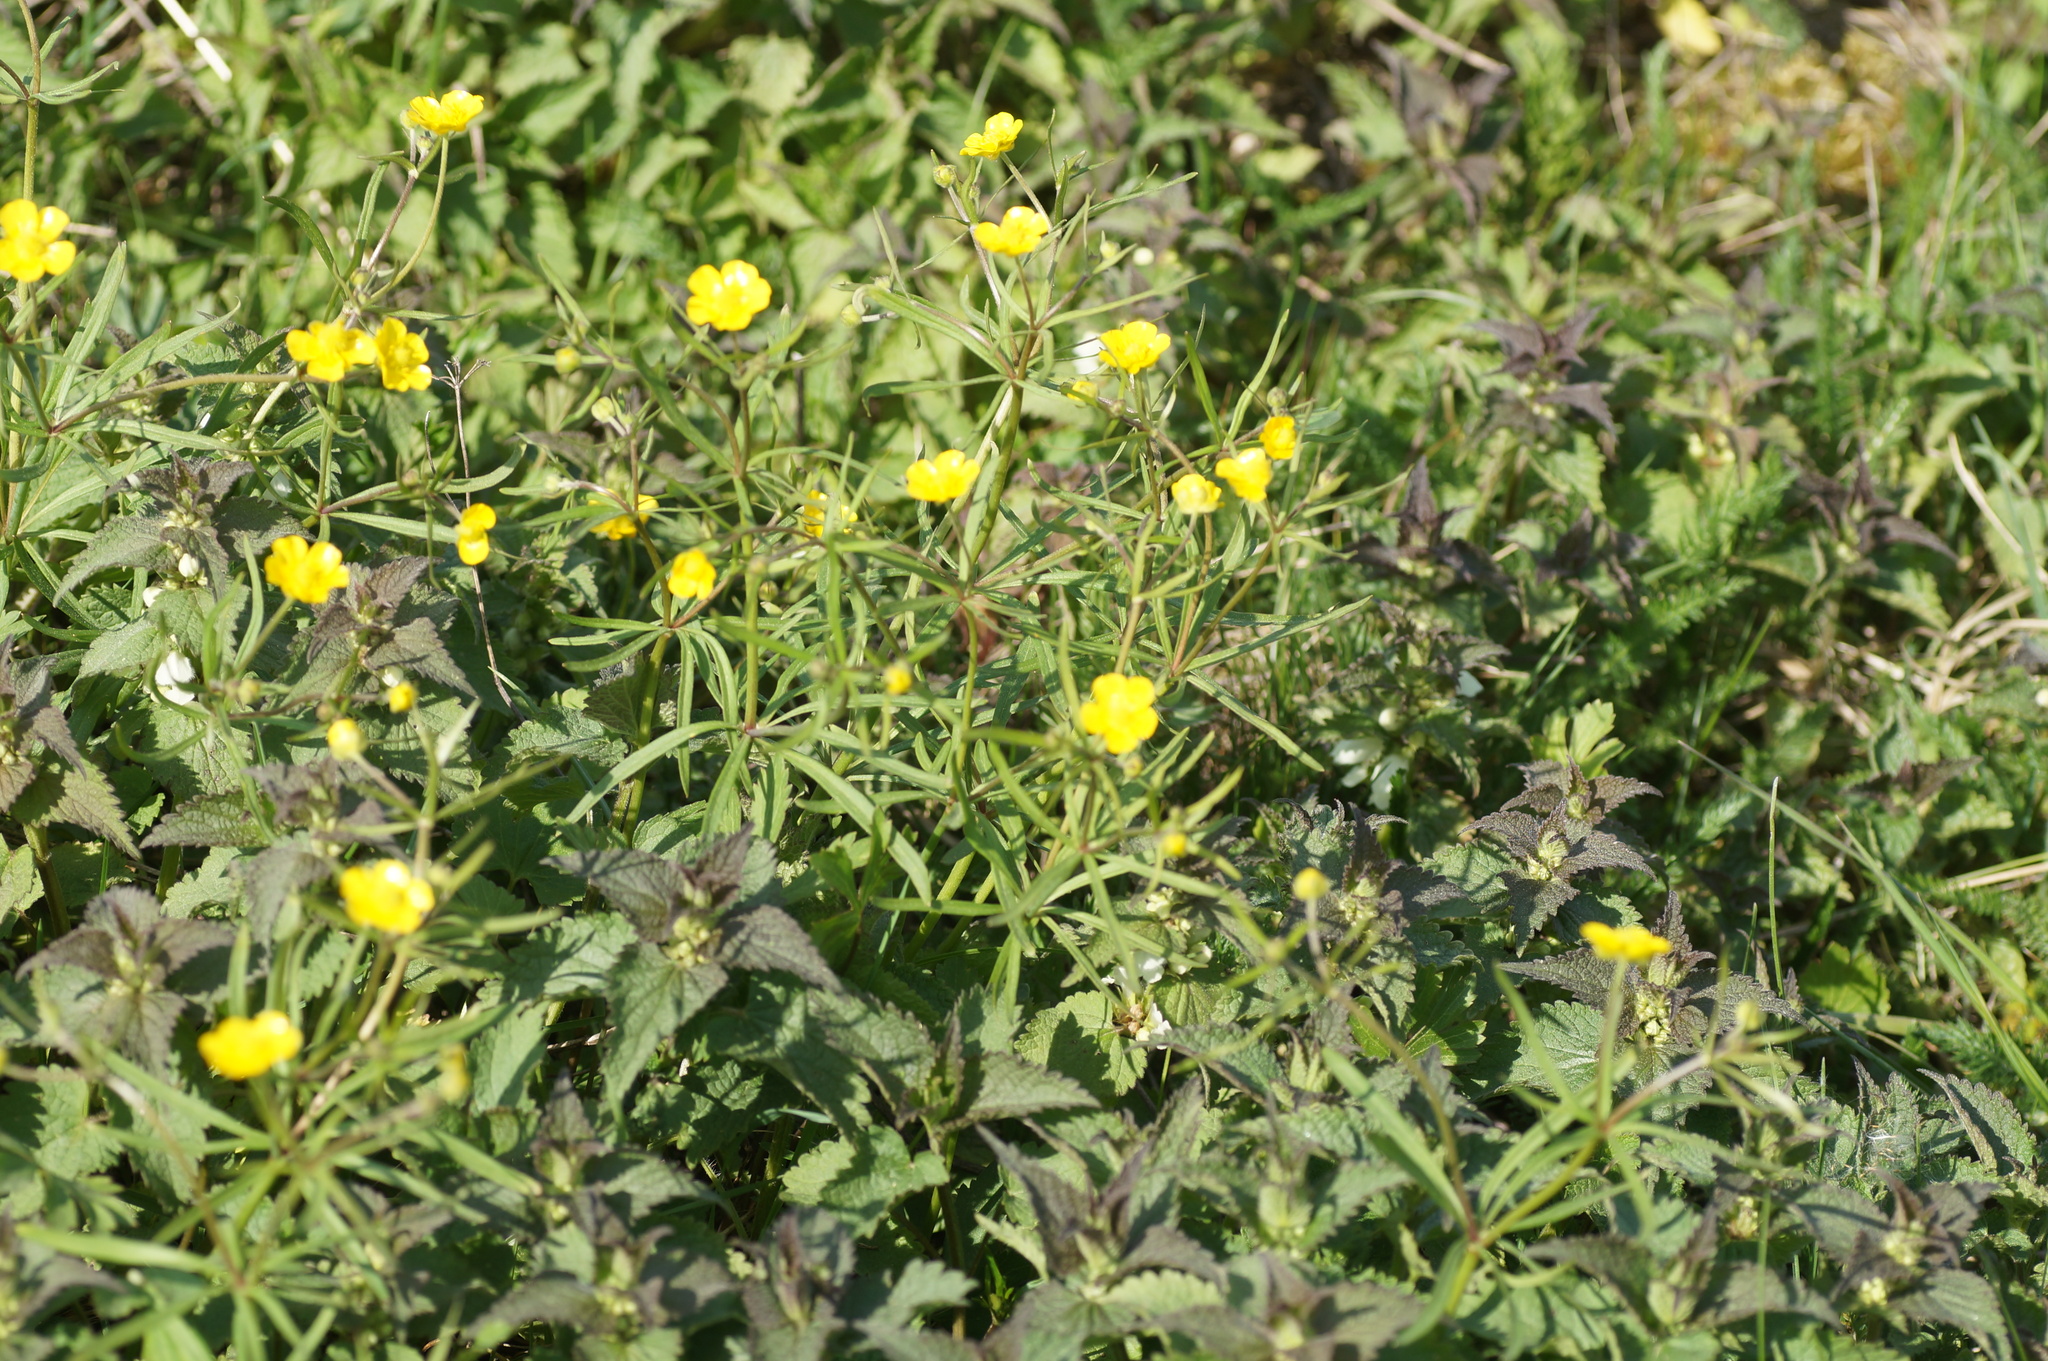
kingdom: Plantae
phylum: Tracheophyta
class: Magnoliopsida
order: Ranunculales
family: Ranunculaceae
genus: Ranunculus
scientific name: Ranunculus auricomus
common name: Goldilocks buttercup
